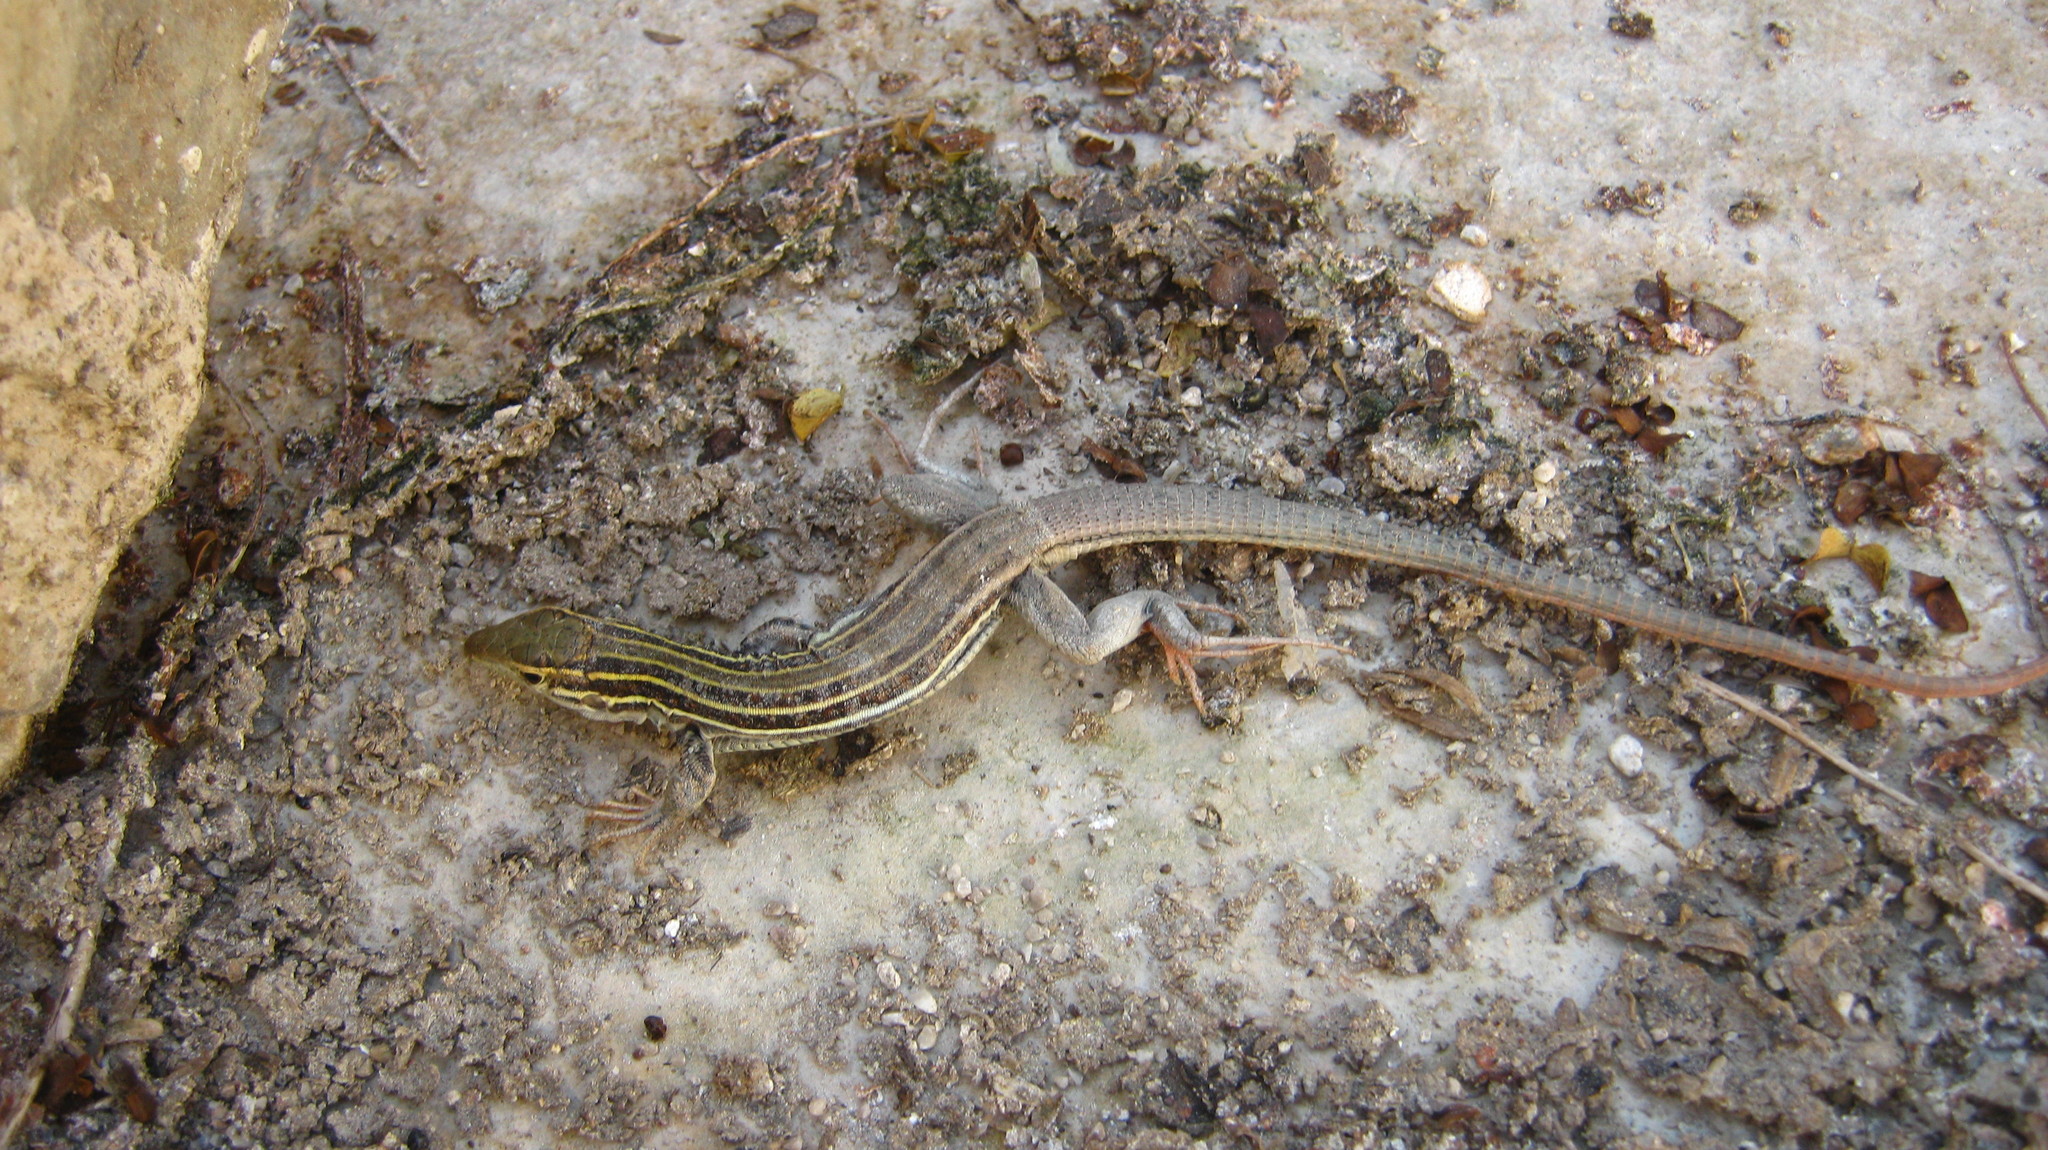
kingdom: Animalia
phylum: Chordata
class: Squamata
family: Teiidae
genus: Aspidoscelis
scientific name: Aspidoscelis gularis
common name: Eastern spotted whiptail
